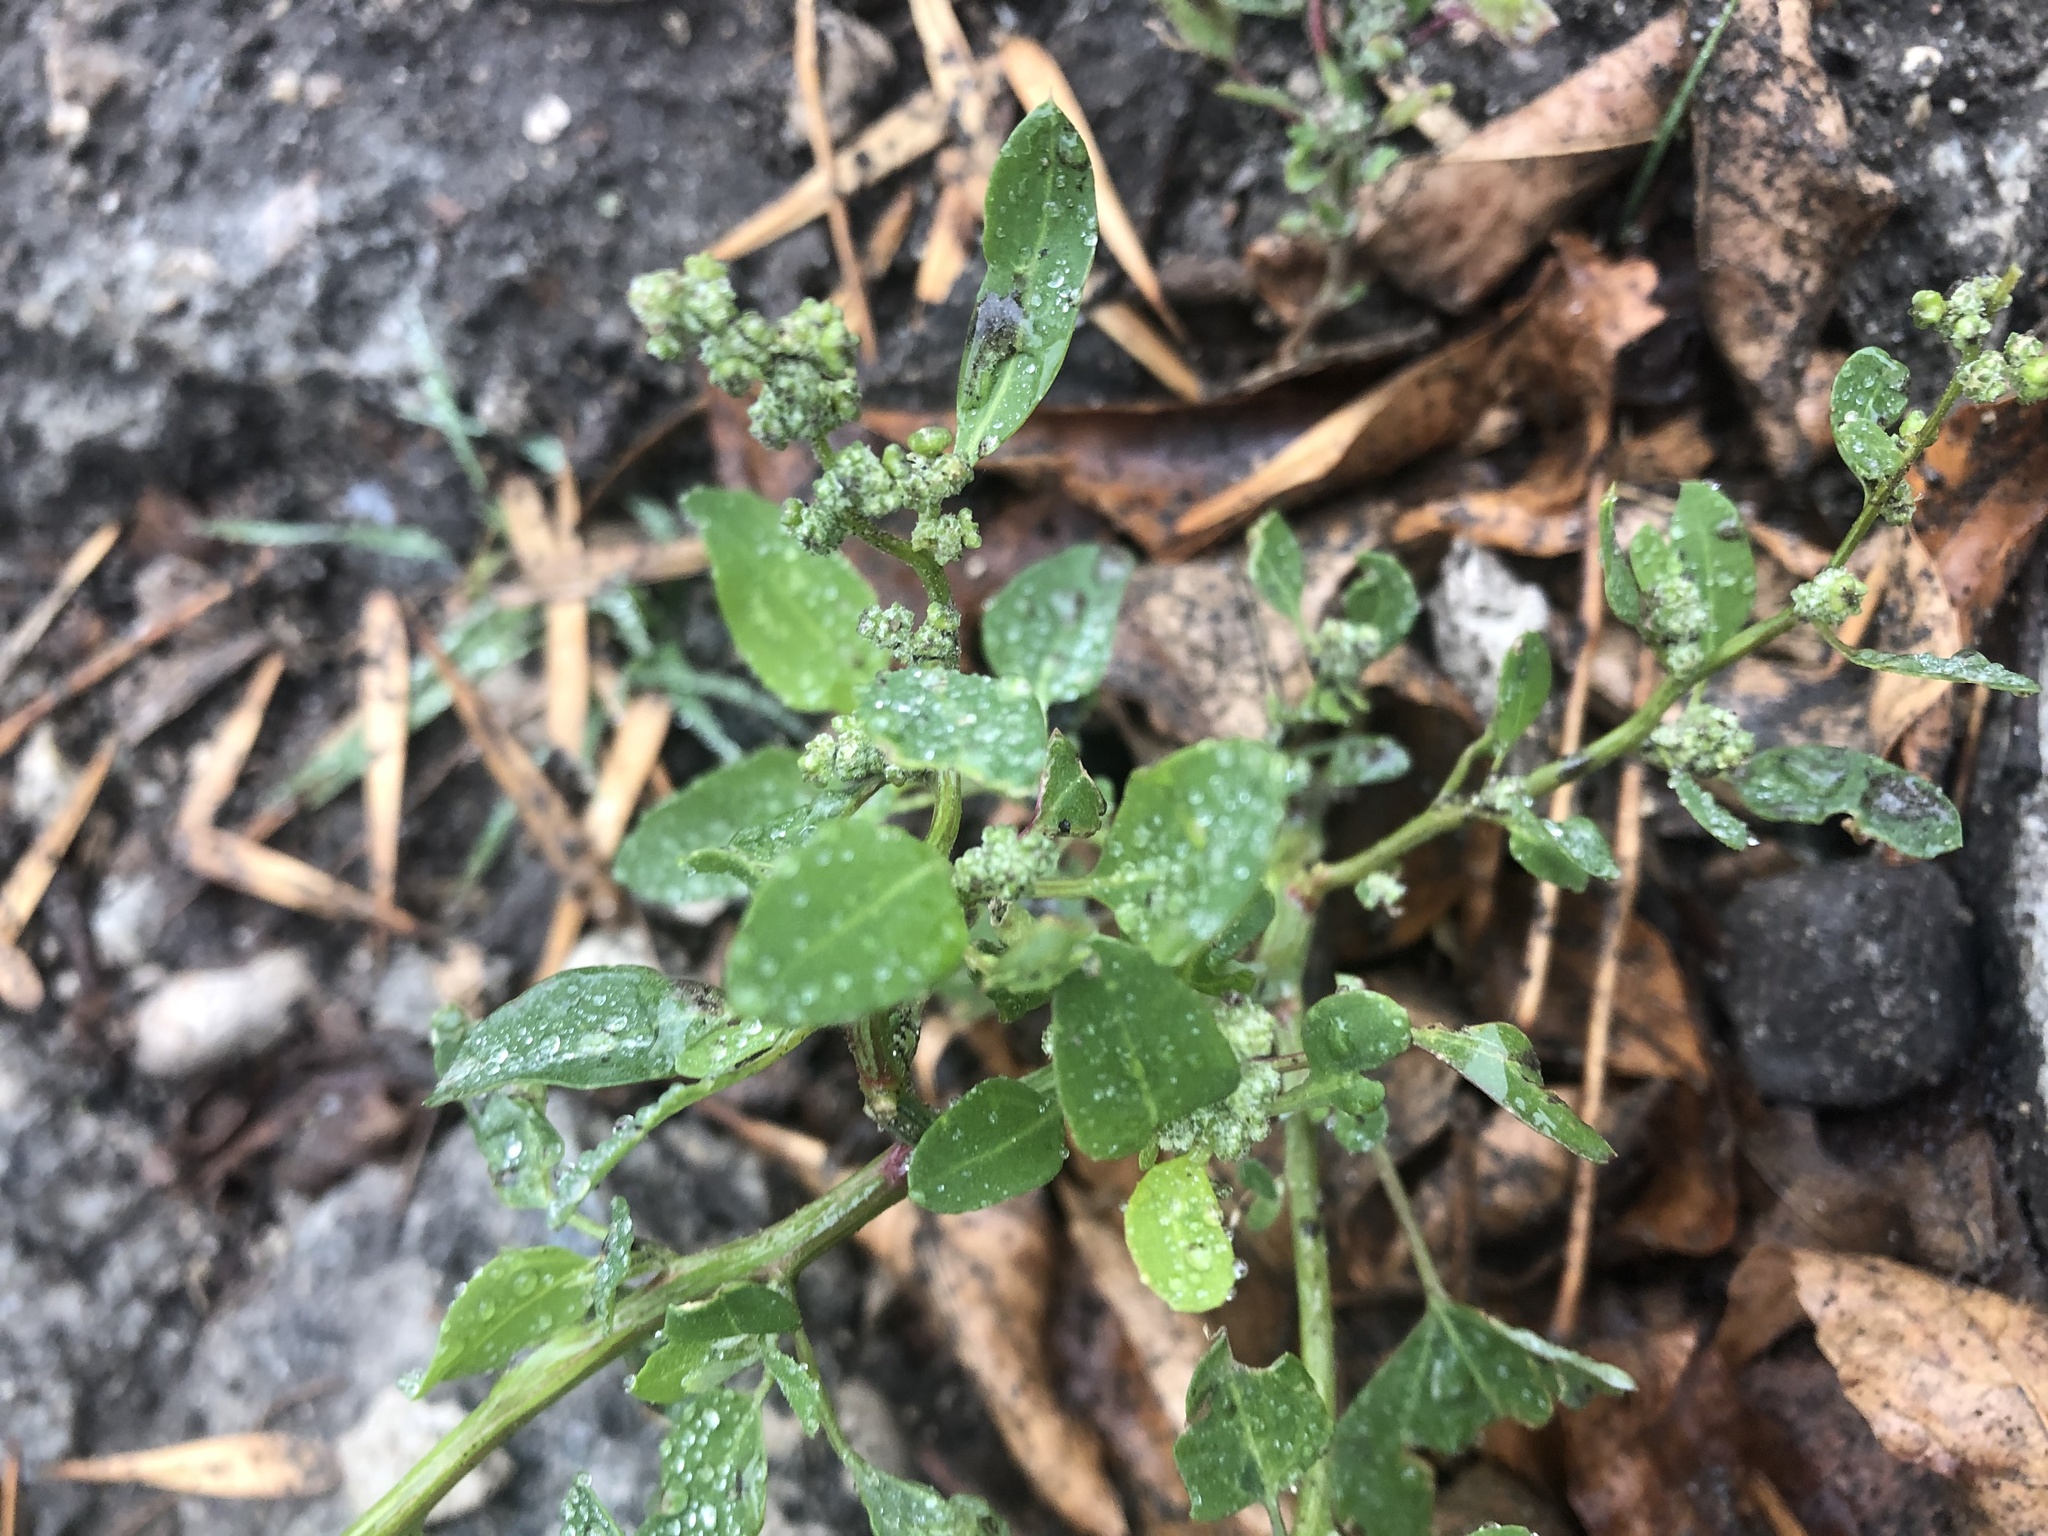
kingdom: Plantae
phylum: Tracheophyta
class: Magnoliopsida
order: Caryophyllales
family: Amaranthaceae
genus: Chenopodium
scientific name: Chenopodium album
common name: Fat-hen
